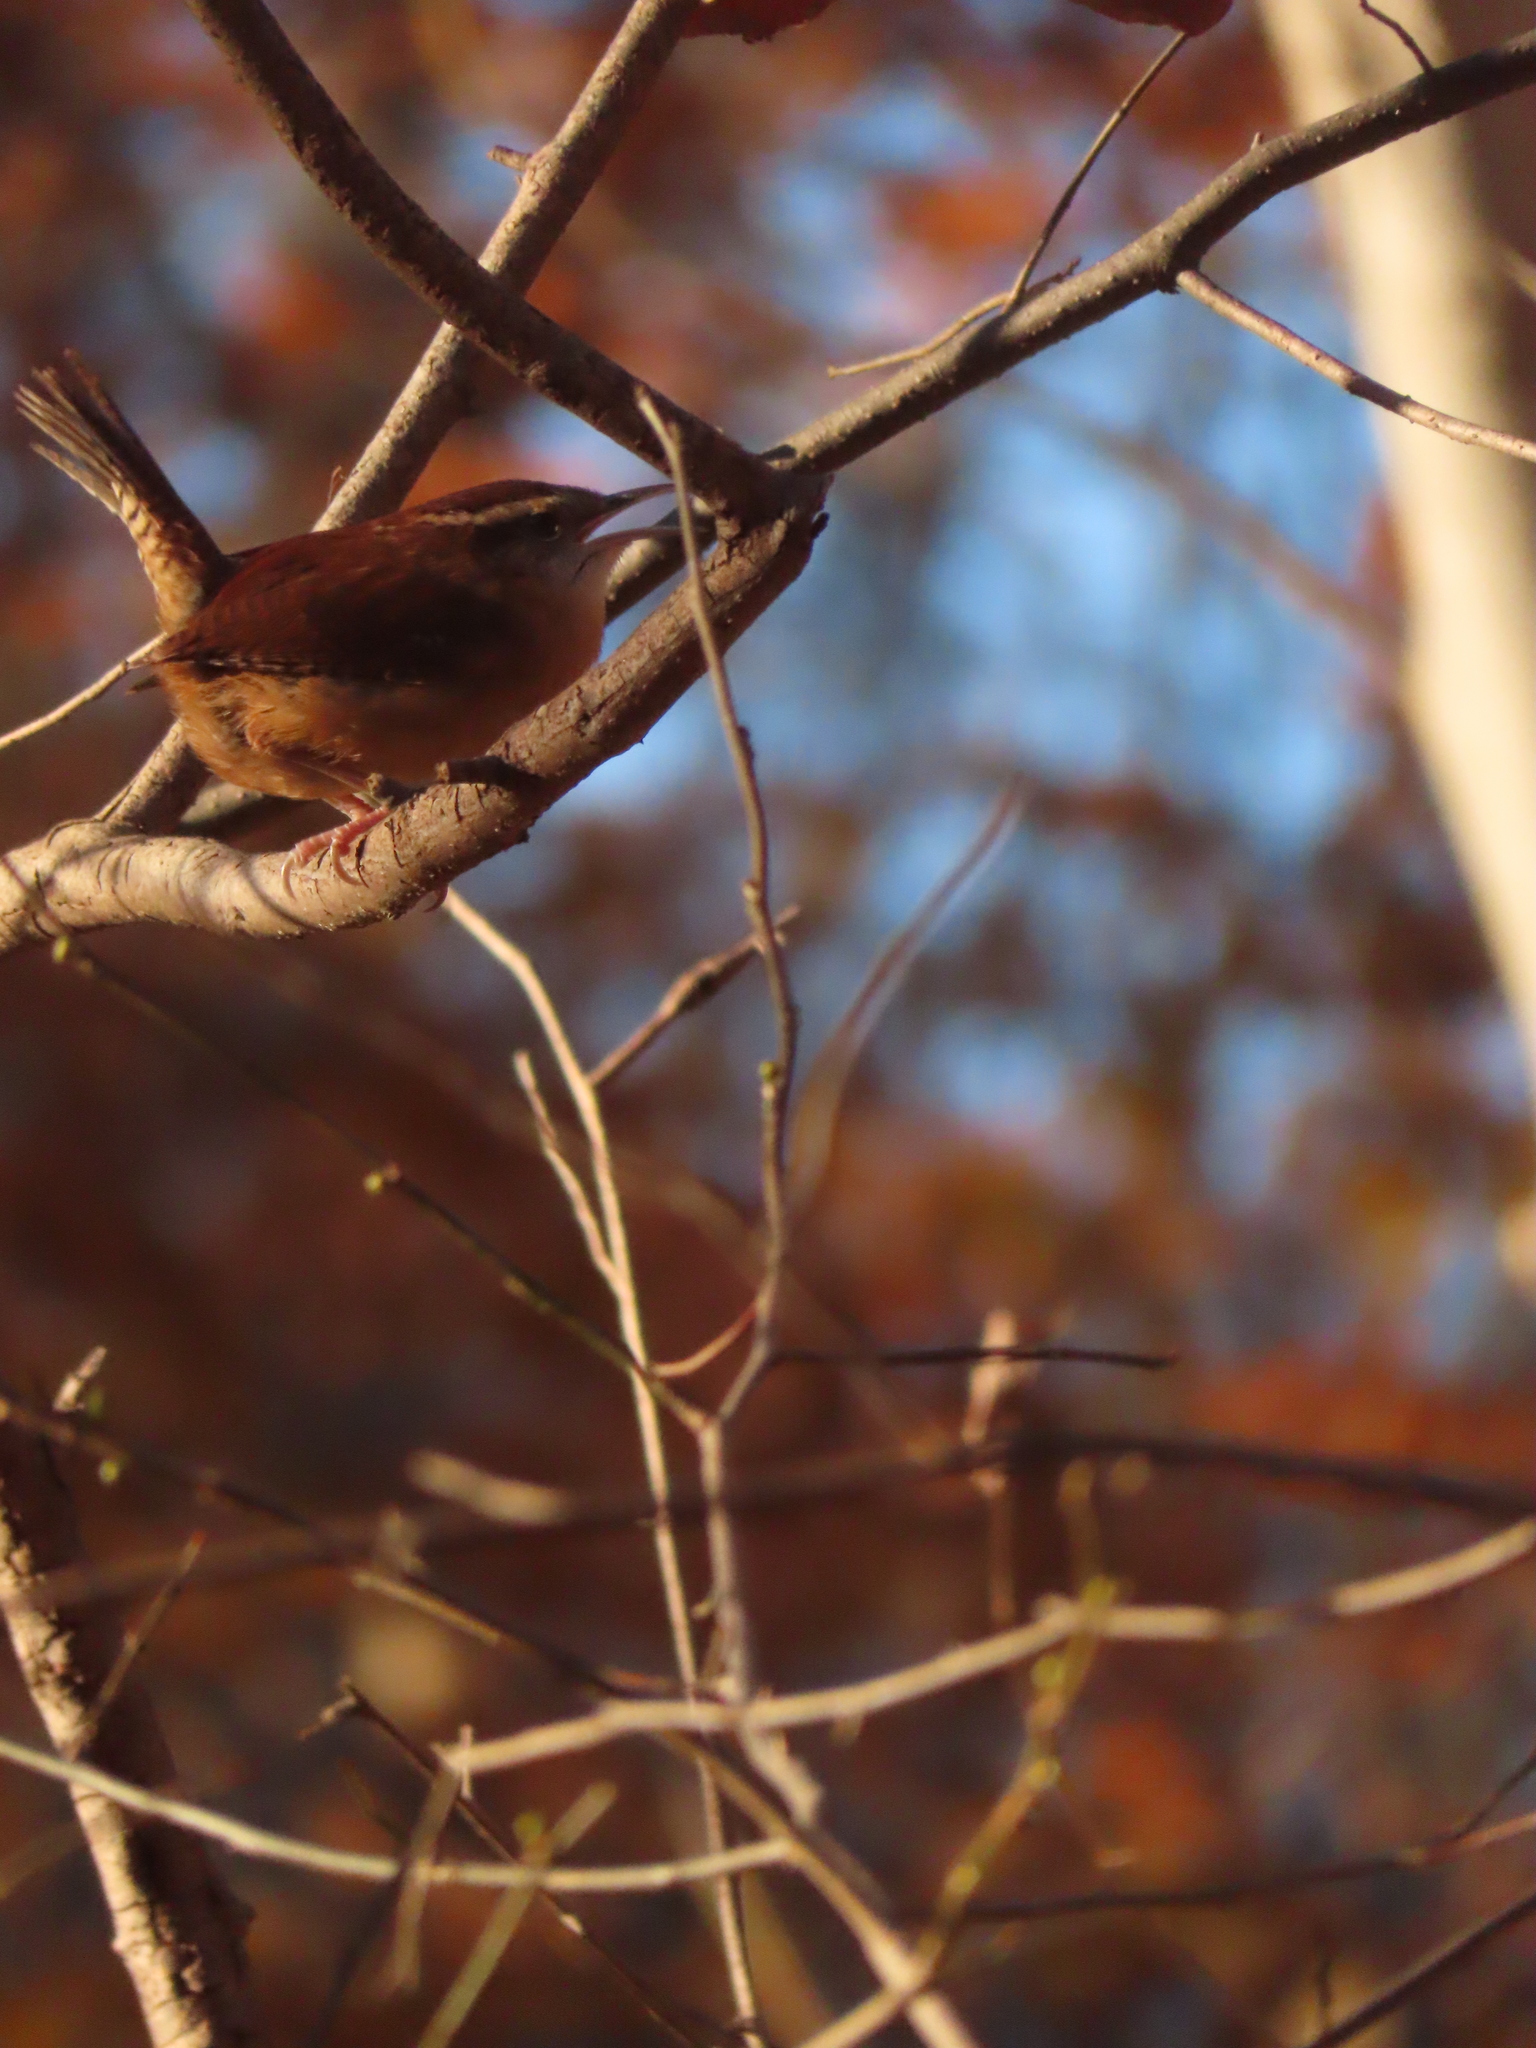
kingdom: Animalia
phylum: Chordata
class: Aves
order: Passeriformes
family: Troglodytidae
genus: Thryothorus
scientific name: Thryothorus ludovicianus
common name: Carolina wren
